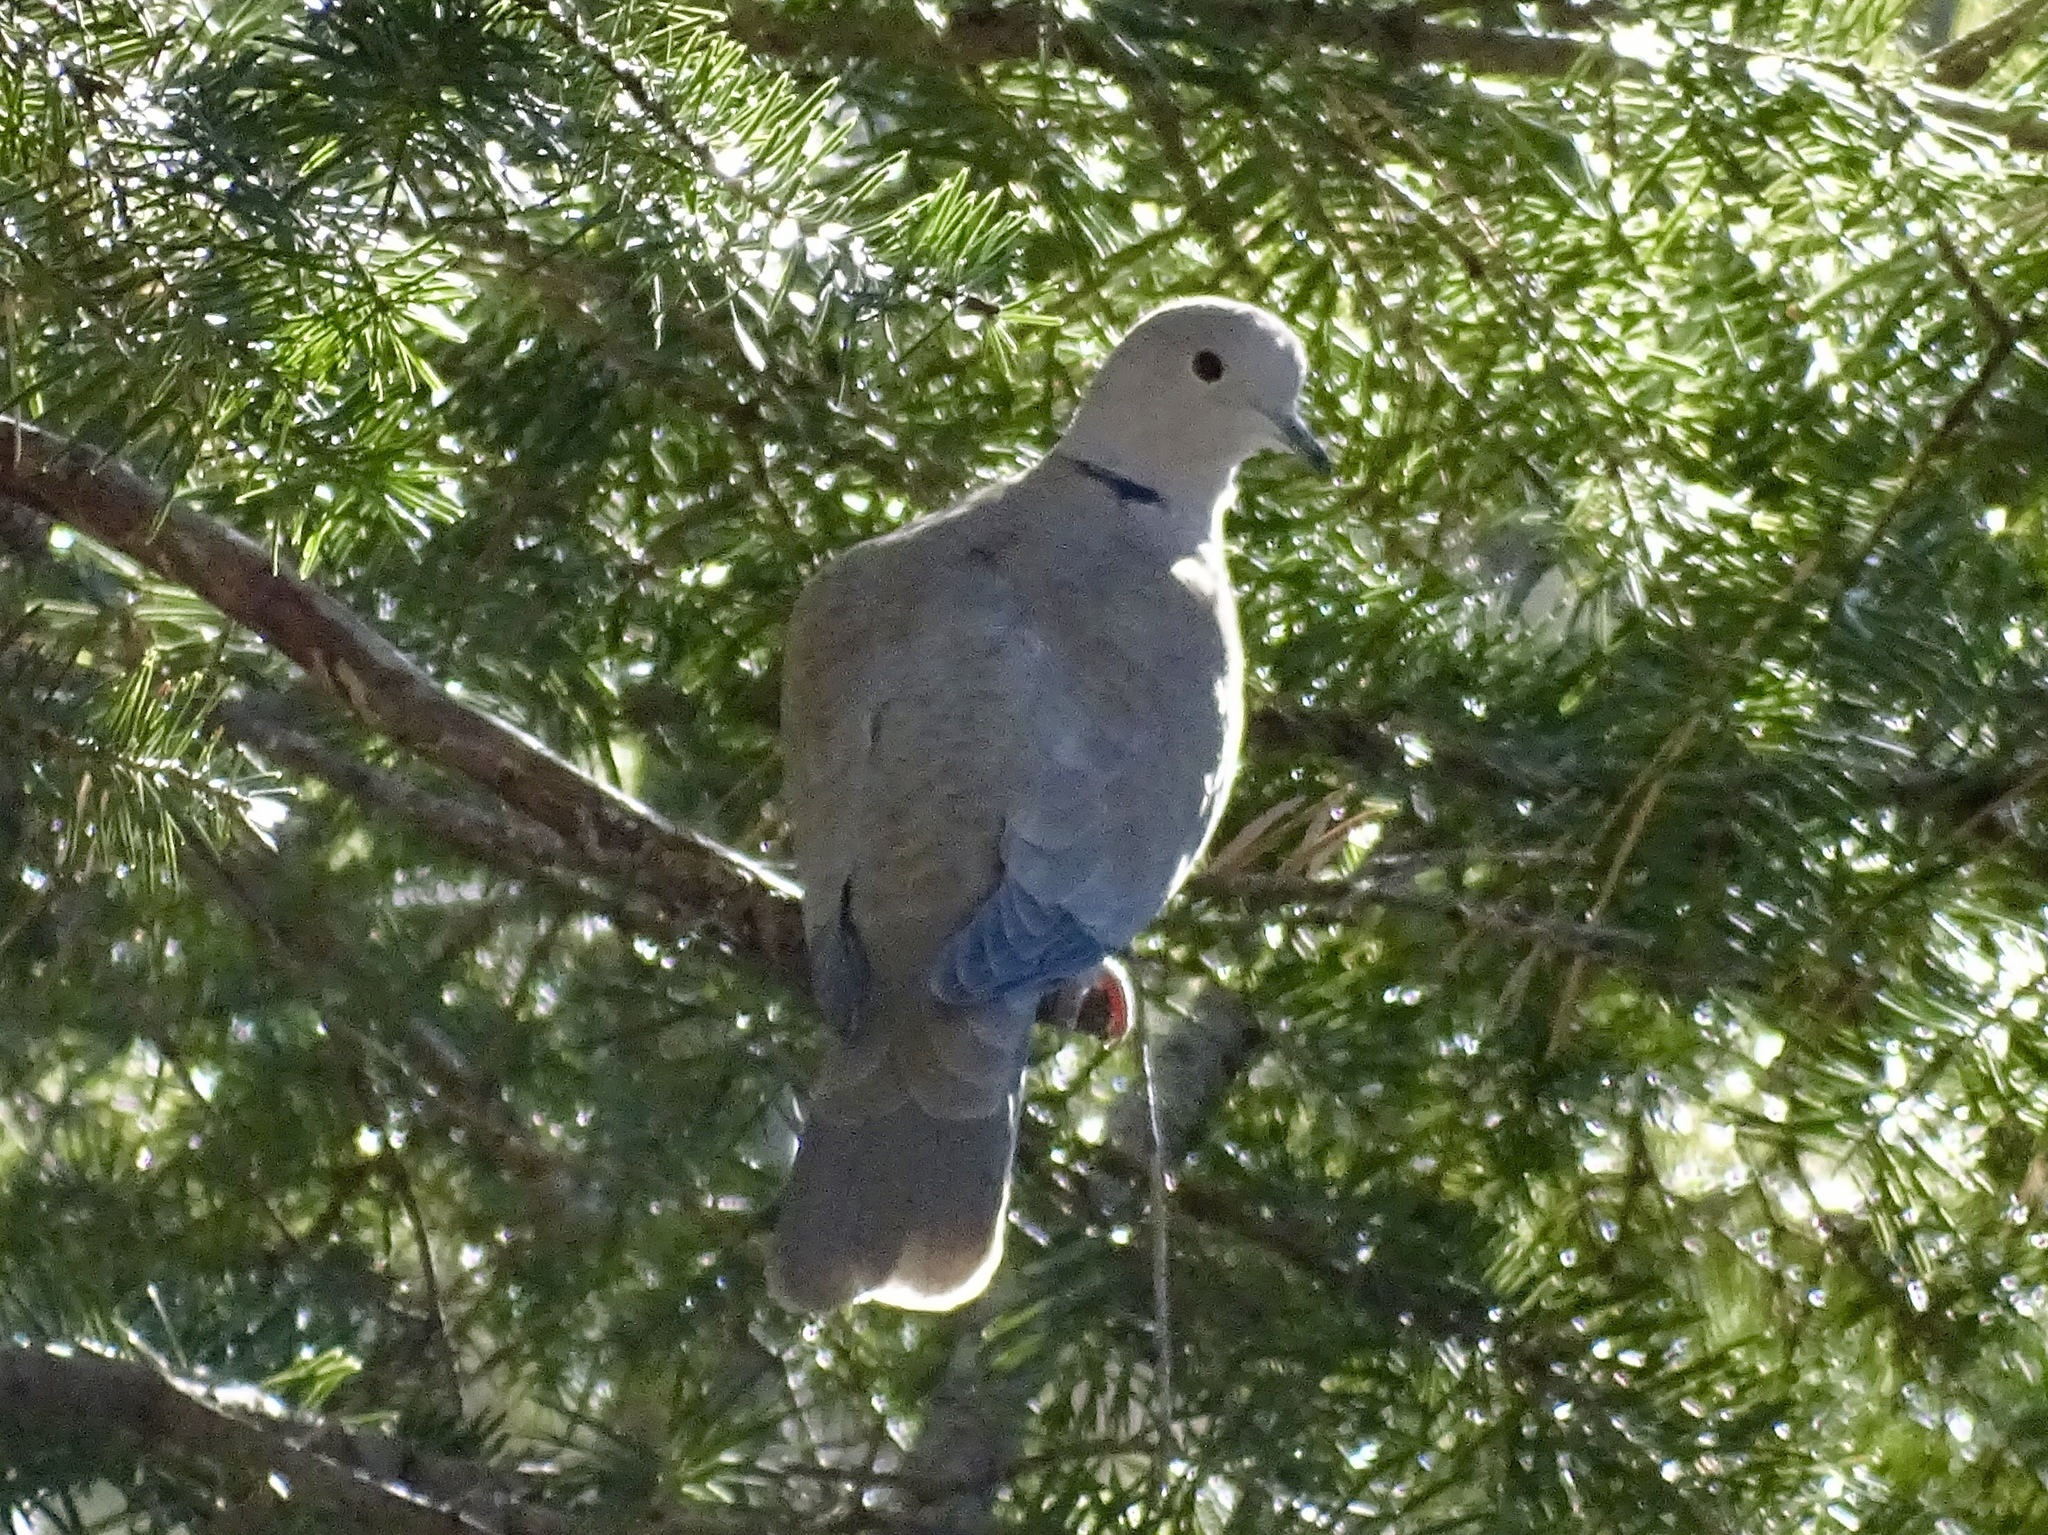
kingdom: Animalia
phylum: Chordata
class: Aves
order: Columbiformes
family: Columbidae
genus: Streptopelia
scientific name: Streptopelia decaocto
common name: Eurasian collared dove
